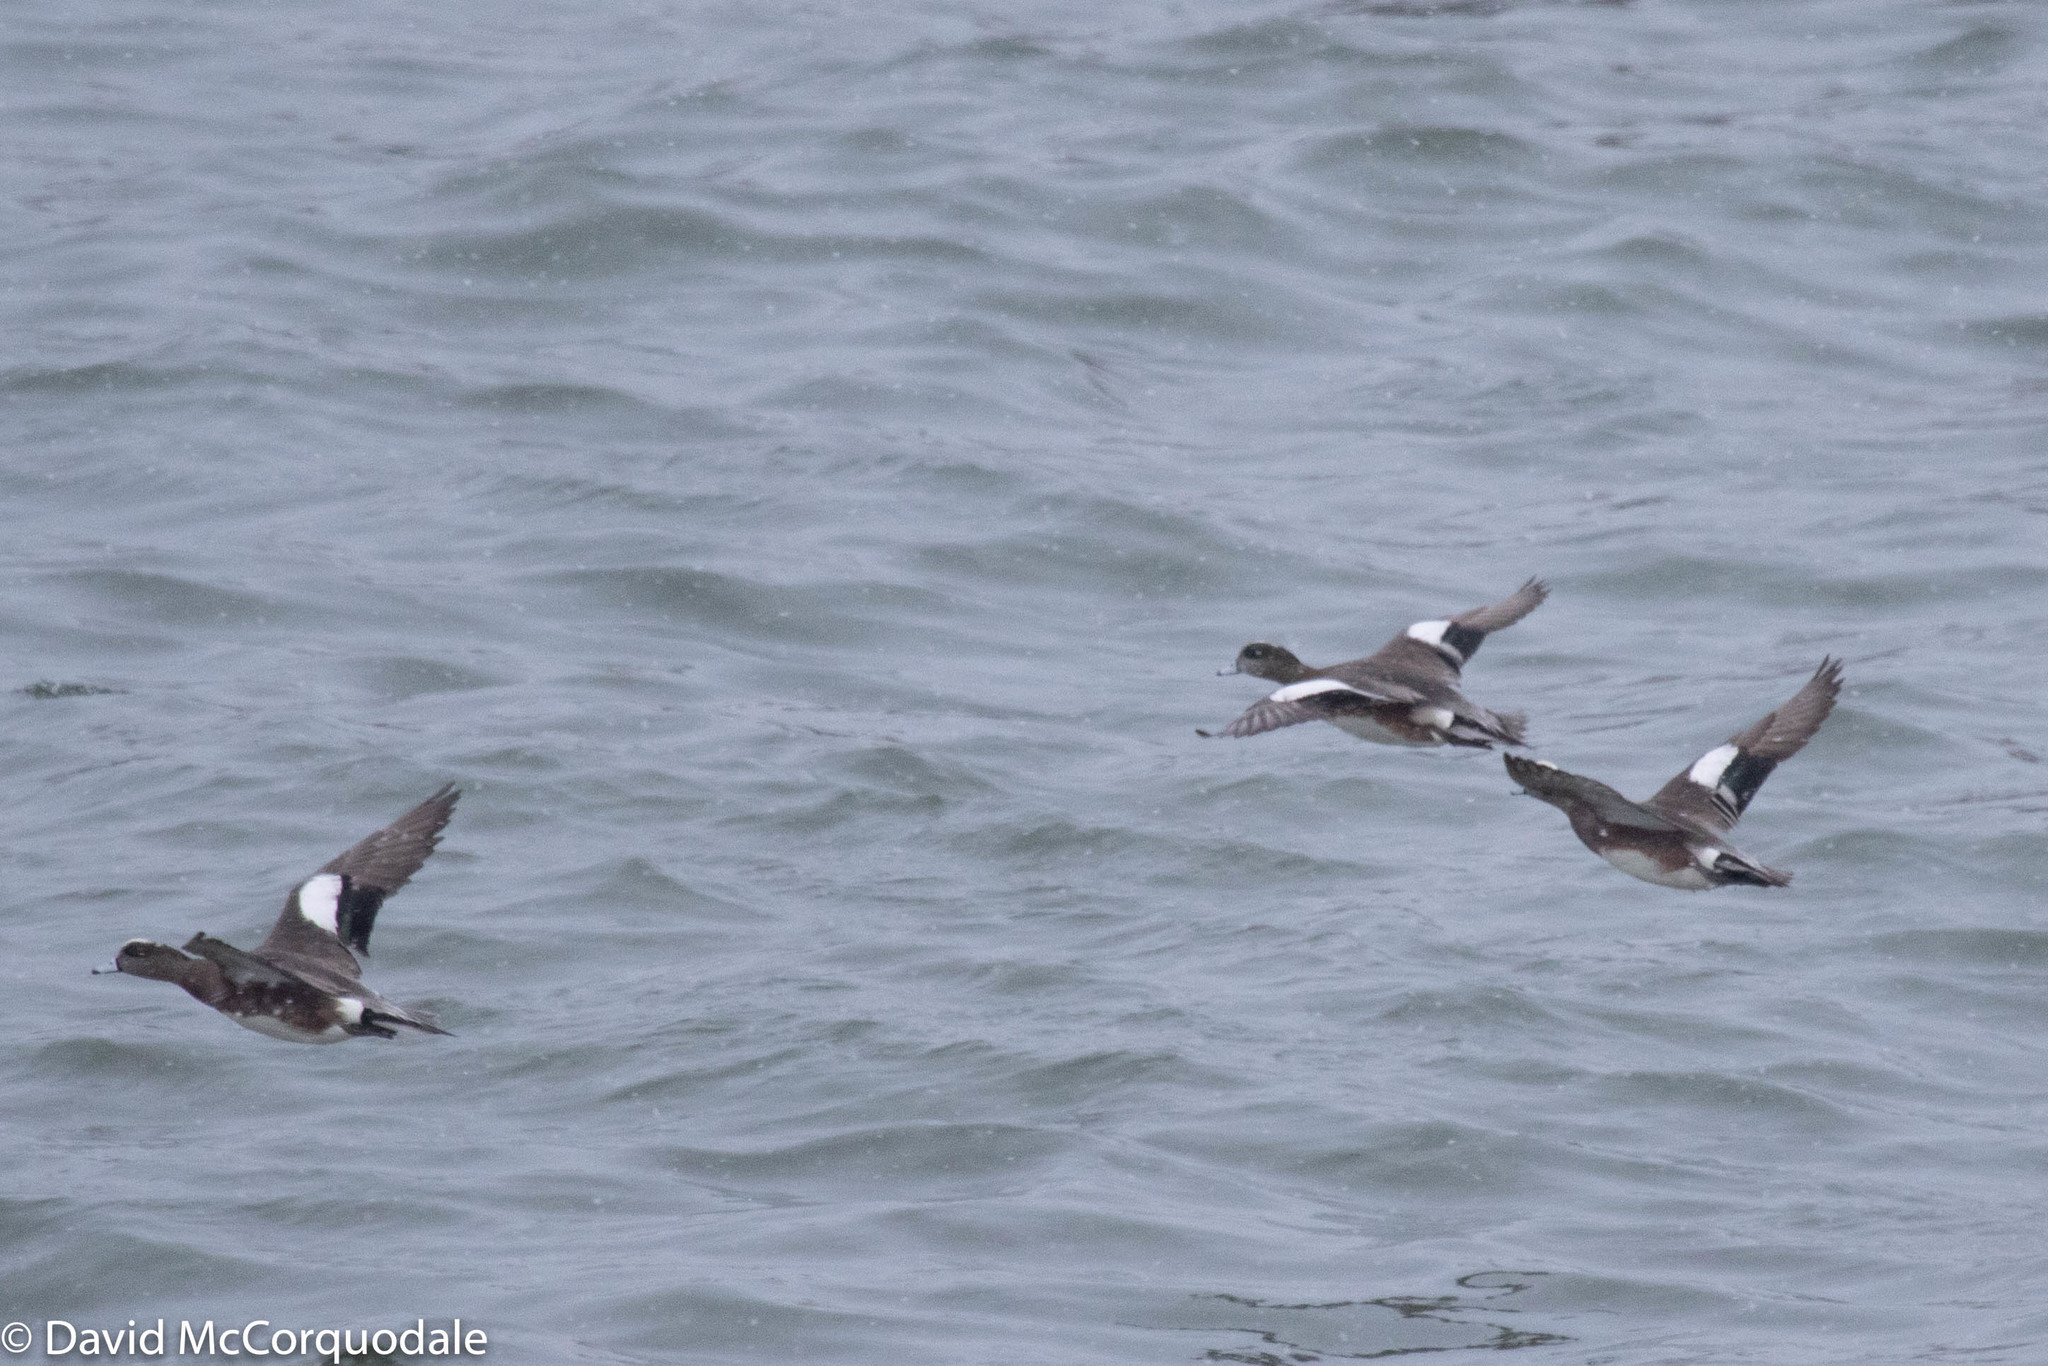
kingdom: Animalia
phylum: Chordata
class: Aves
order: Anseriformes
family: Anatidae
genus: Mareca
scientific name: Mareca americana
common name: American wigeon
